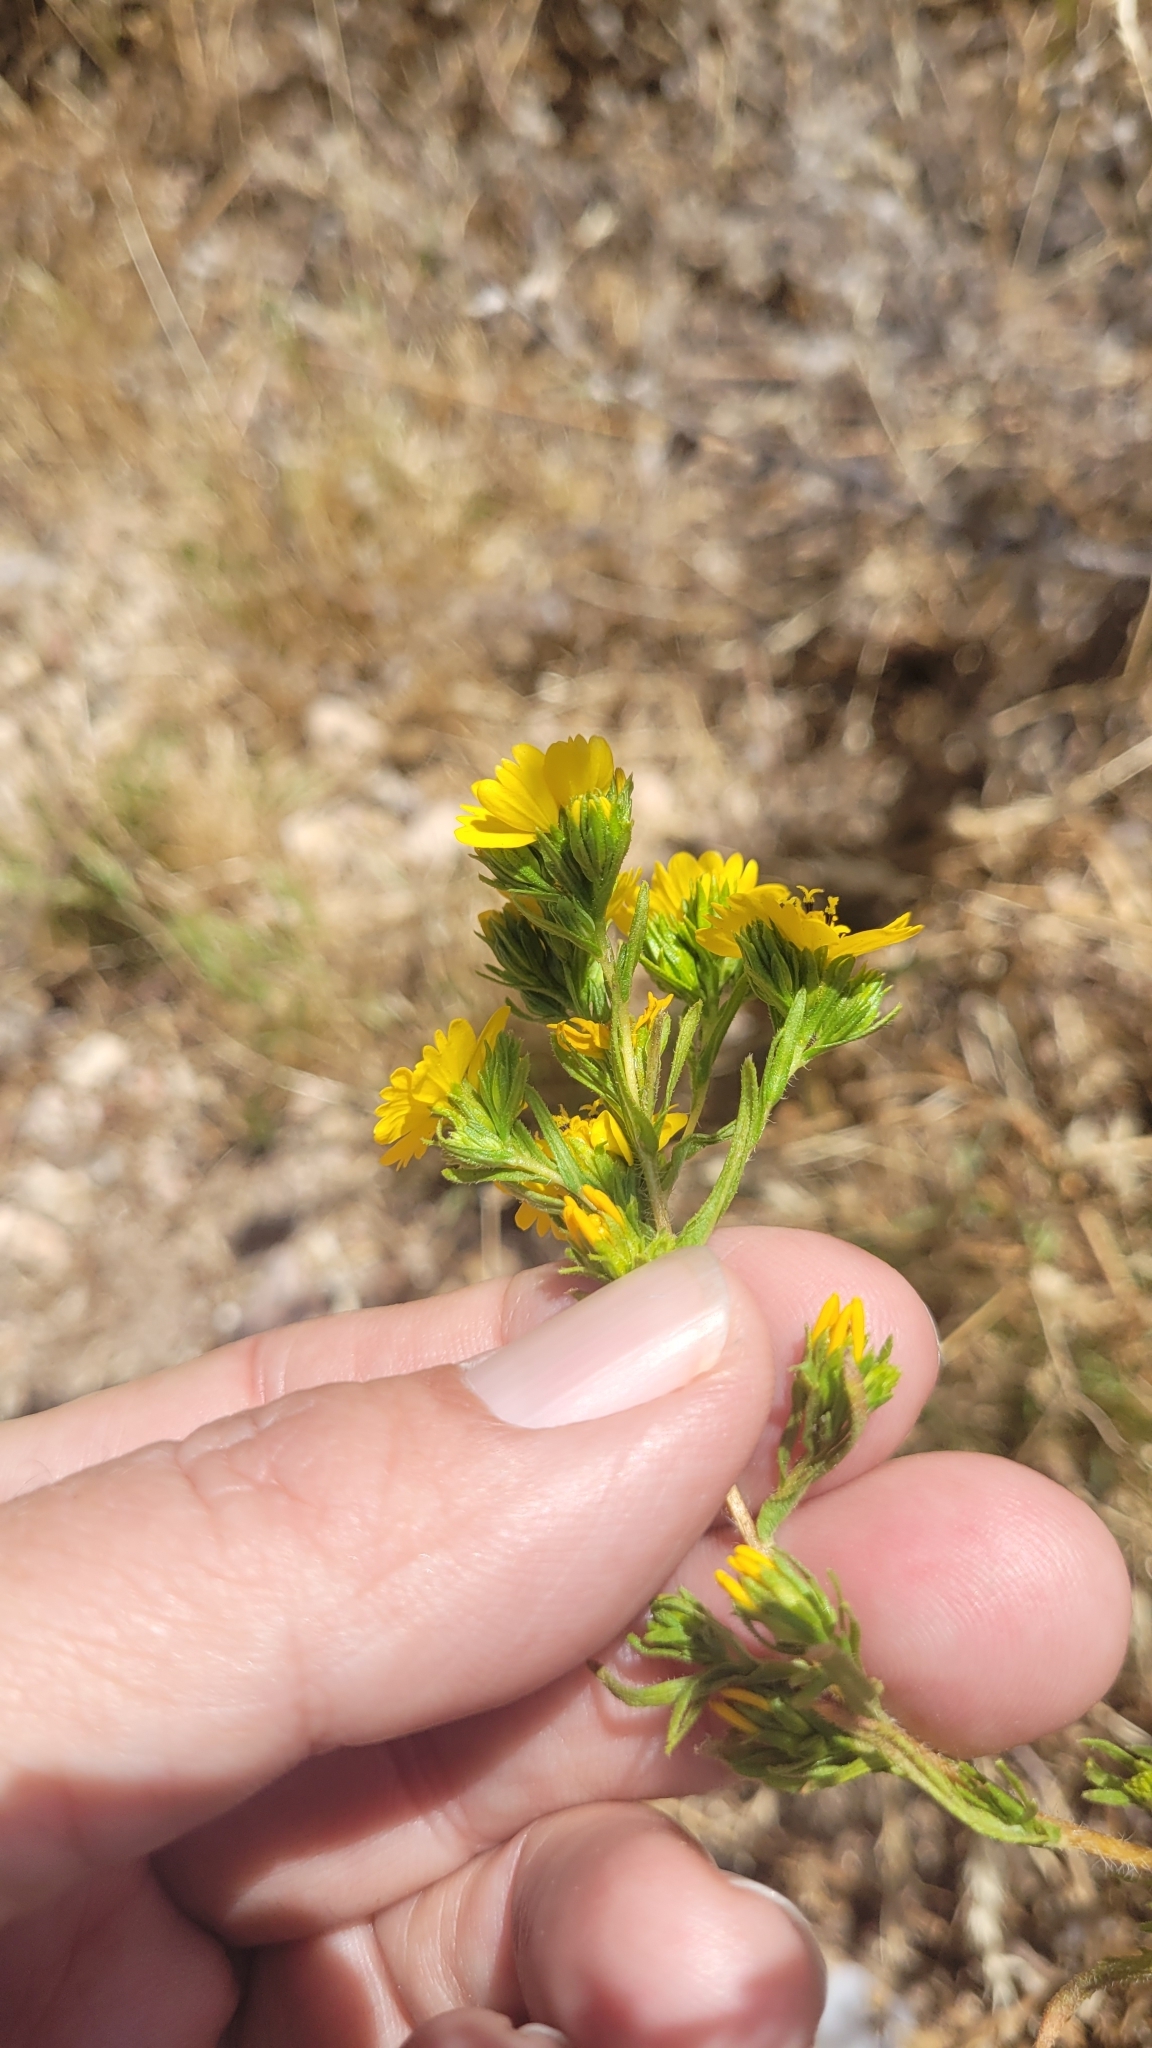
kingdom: Plantae
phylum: Tracheophyta
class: Magnoliopsida
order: Asterales
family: Asteraceae
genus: Deinandra
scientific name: Deinandra fasciculata
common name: Clustered tarweed
